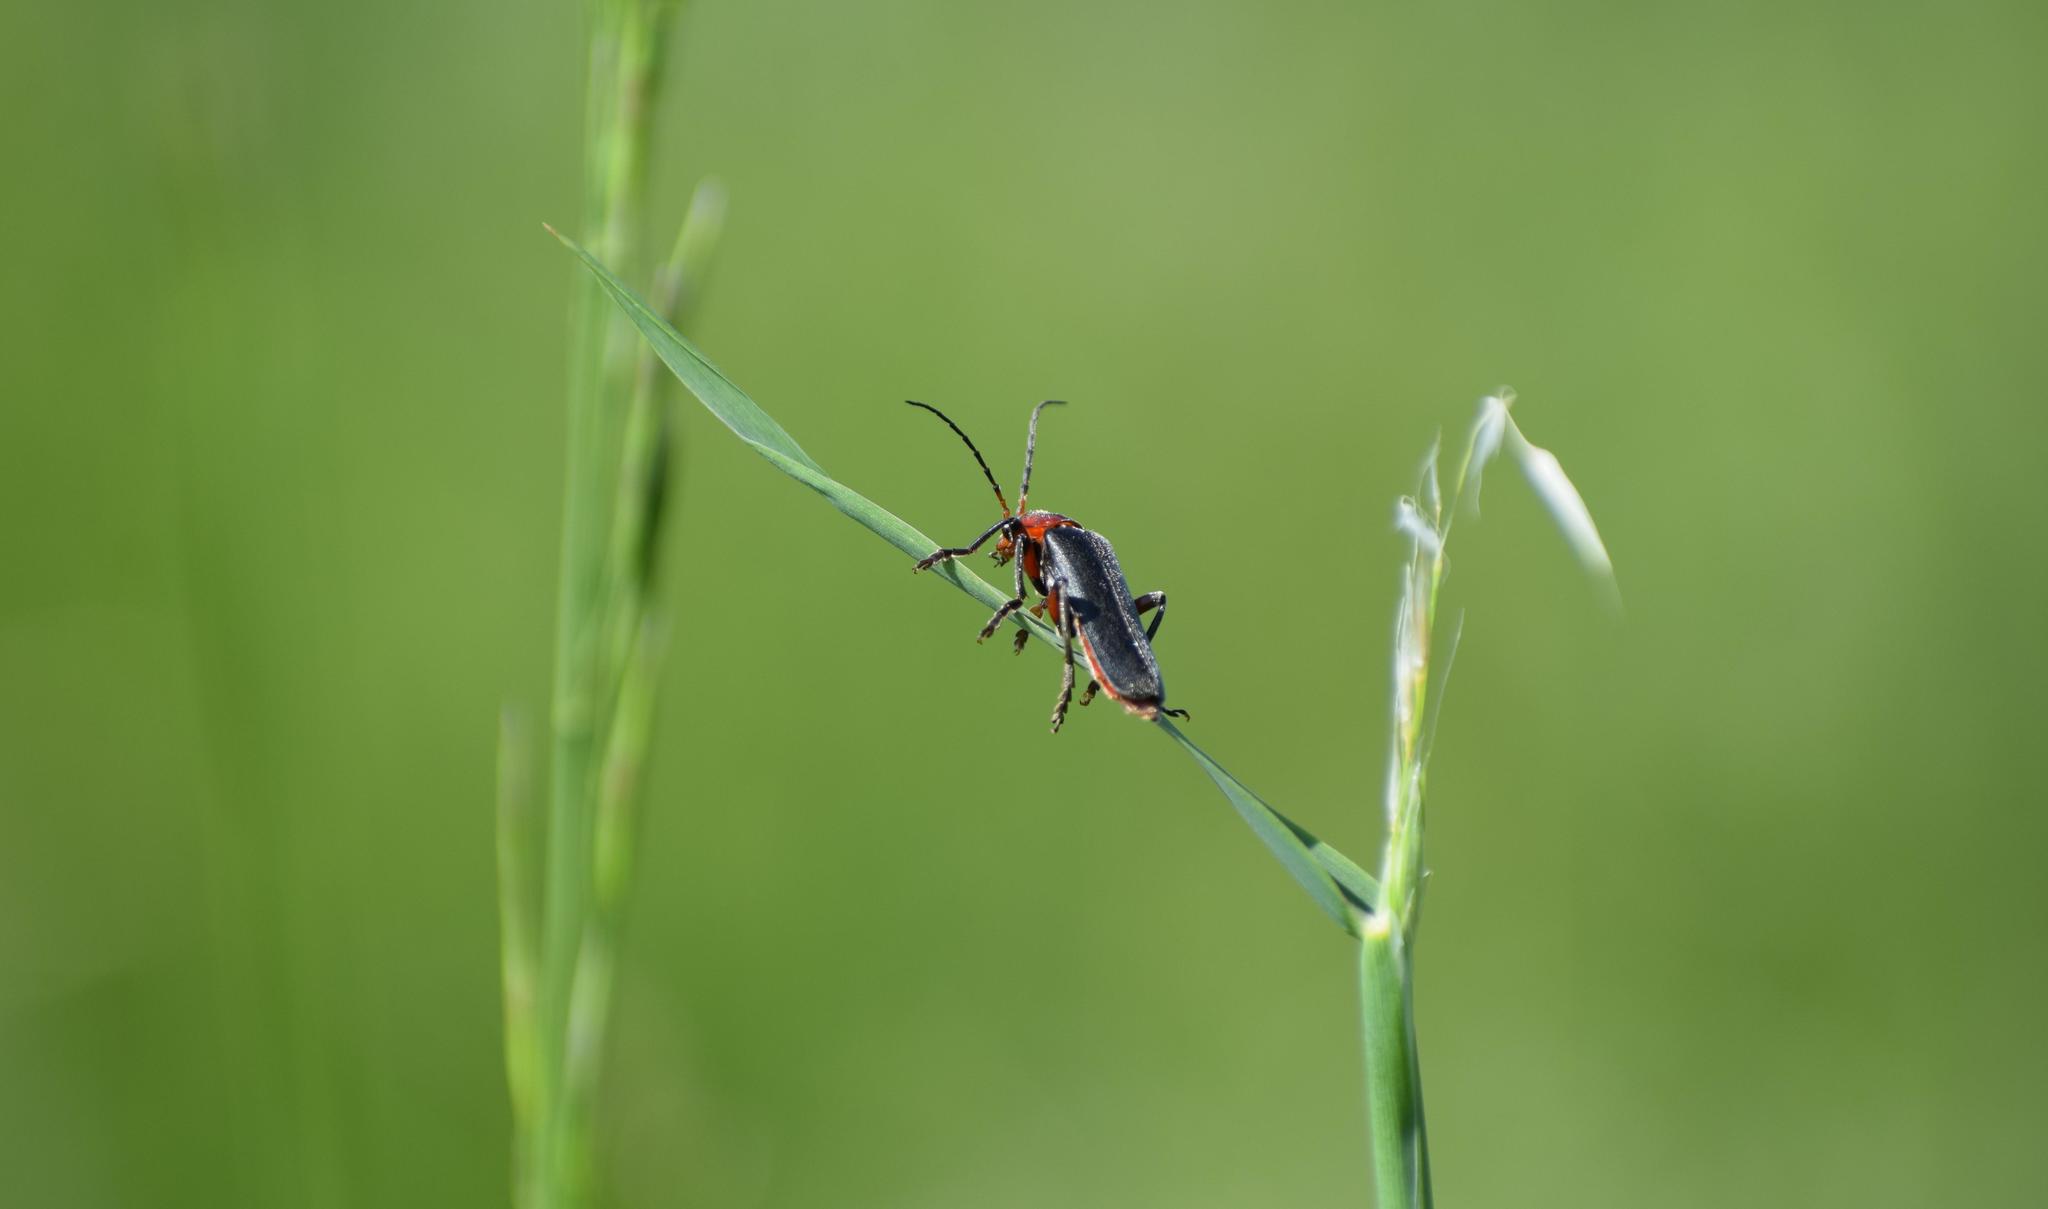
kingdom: Animalia
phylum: Arthropoda
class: Insecta
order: Coleoptera
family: Cantharidae
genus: Cantharis
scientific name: Cantharis rustica
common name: Soldier beetle
